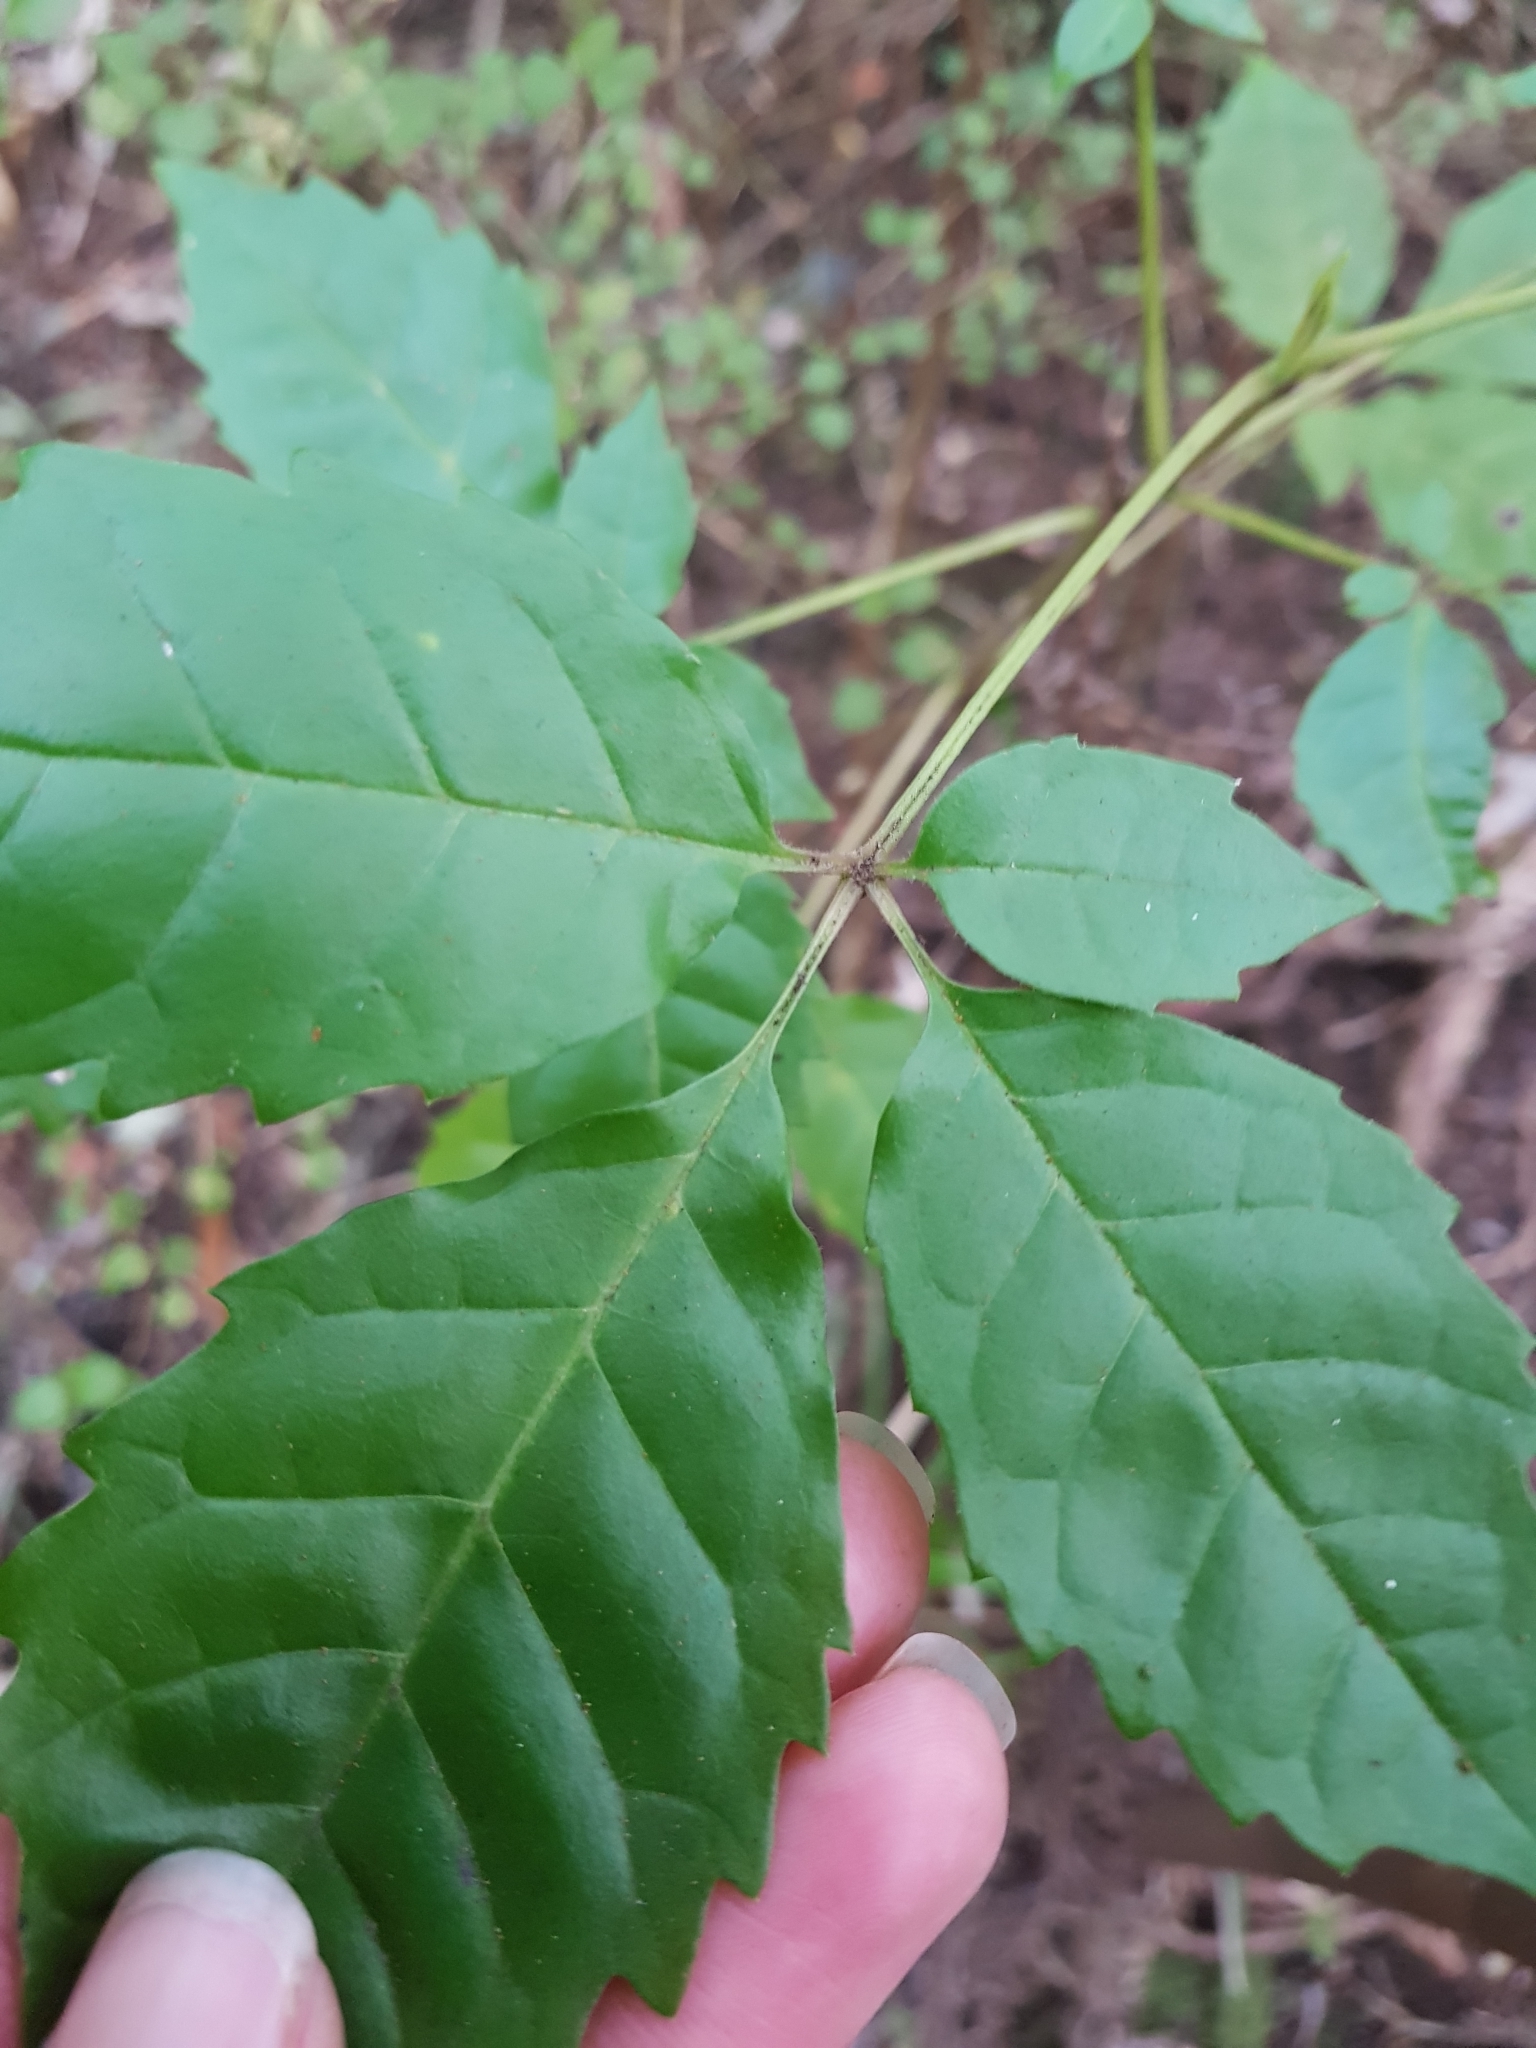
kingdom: Plantae
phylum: Tracheophyta
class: Magnoliopsida
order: Lamiales
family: Lamiaceae
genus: Vitex
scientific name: Vitex lucens
